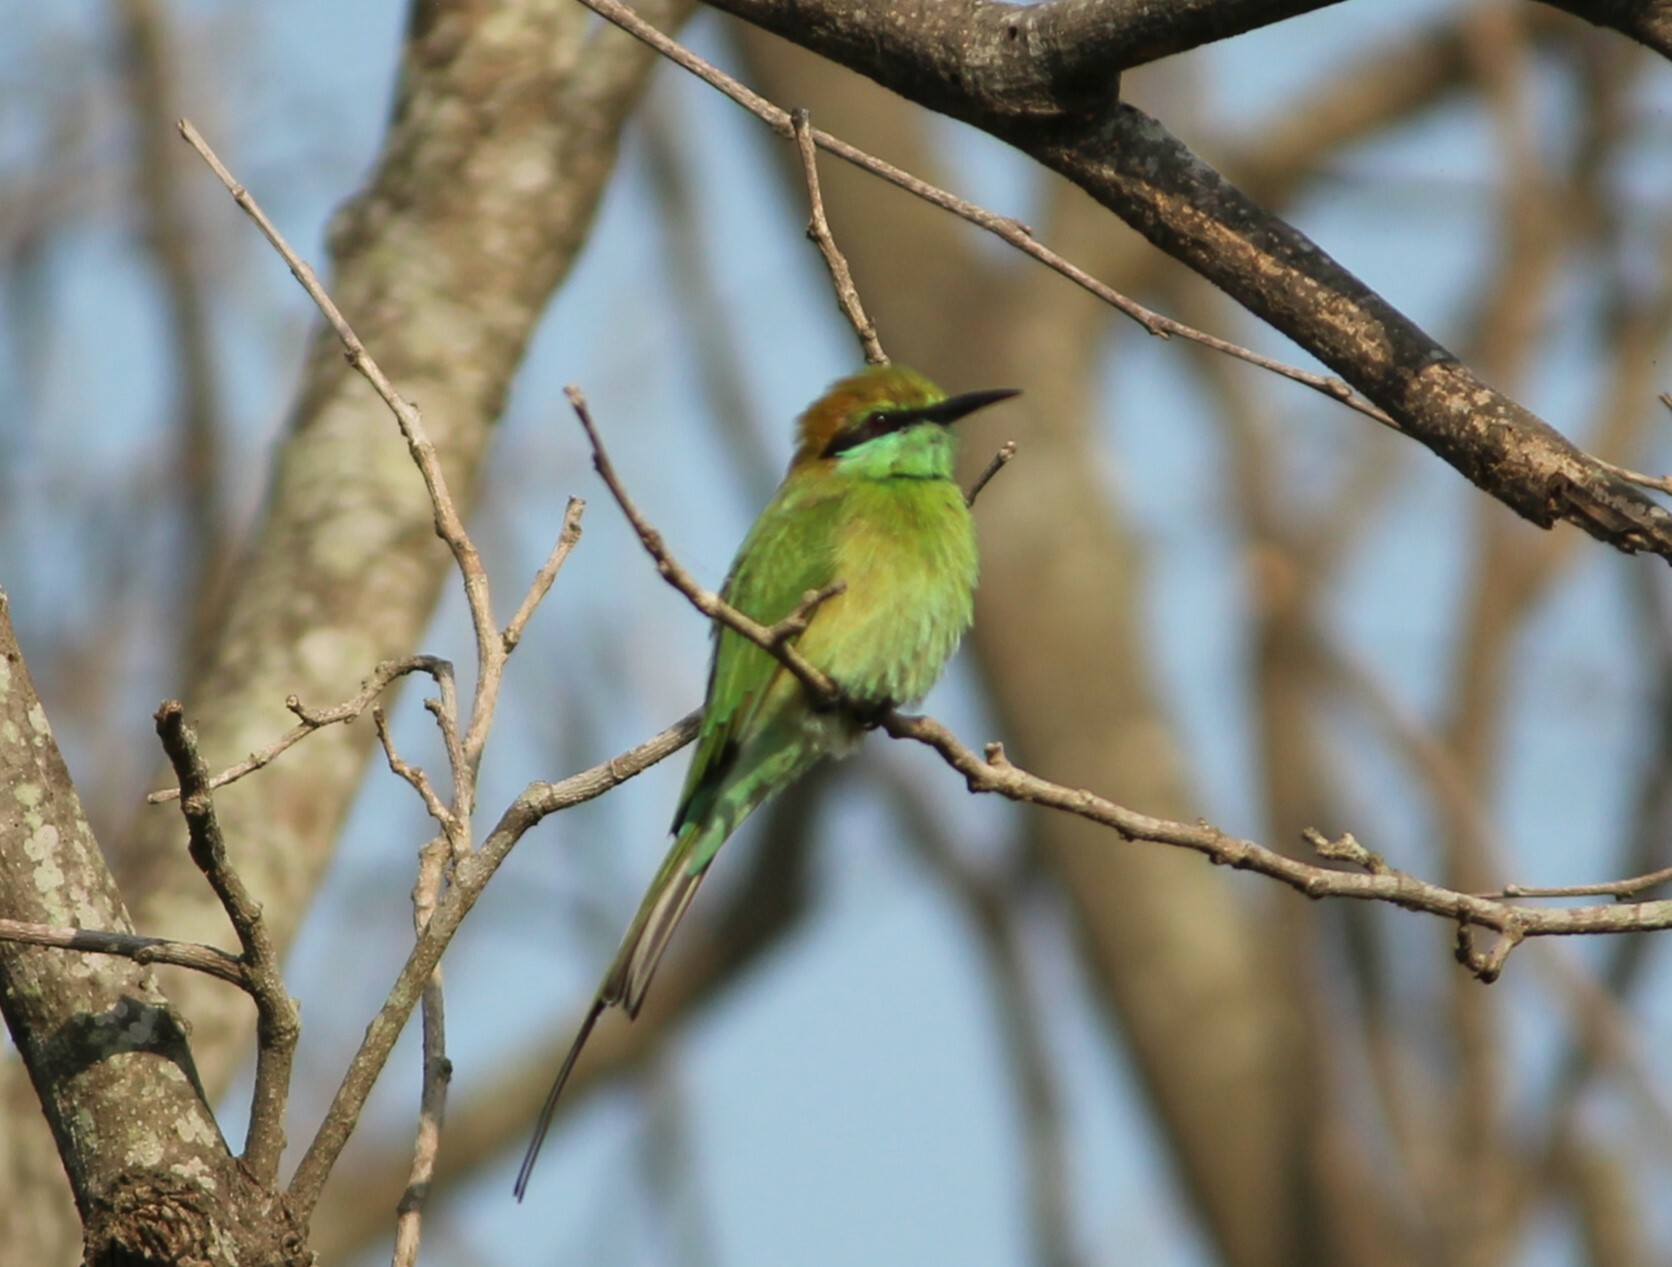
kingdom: Animalia
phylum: Chordata
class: Aves
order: Coraciiformes
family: Meropidae
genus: Merops
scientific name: Merops orientalis
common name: Green bee-eater
